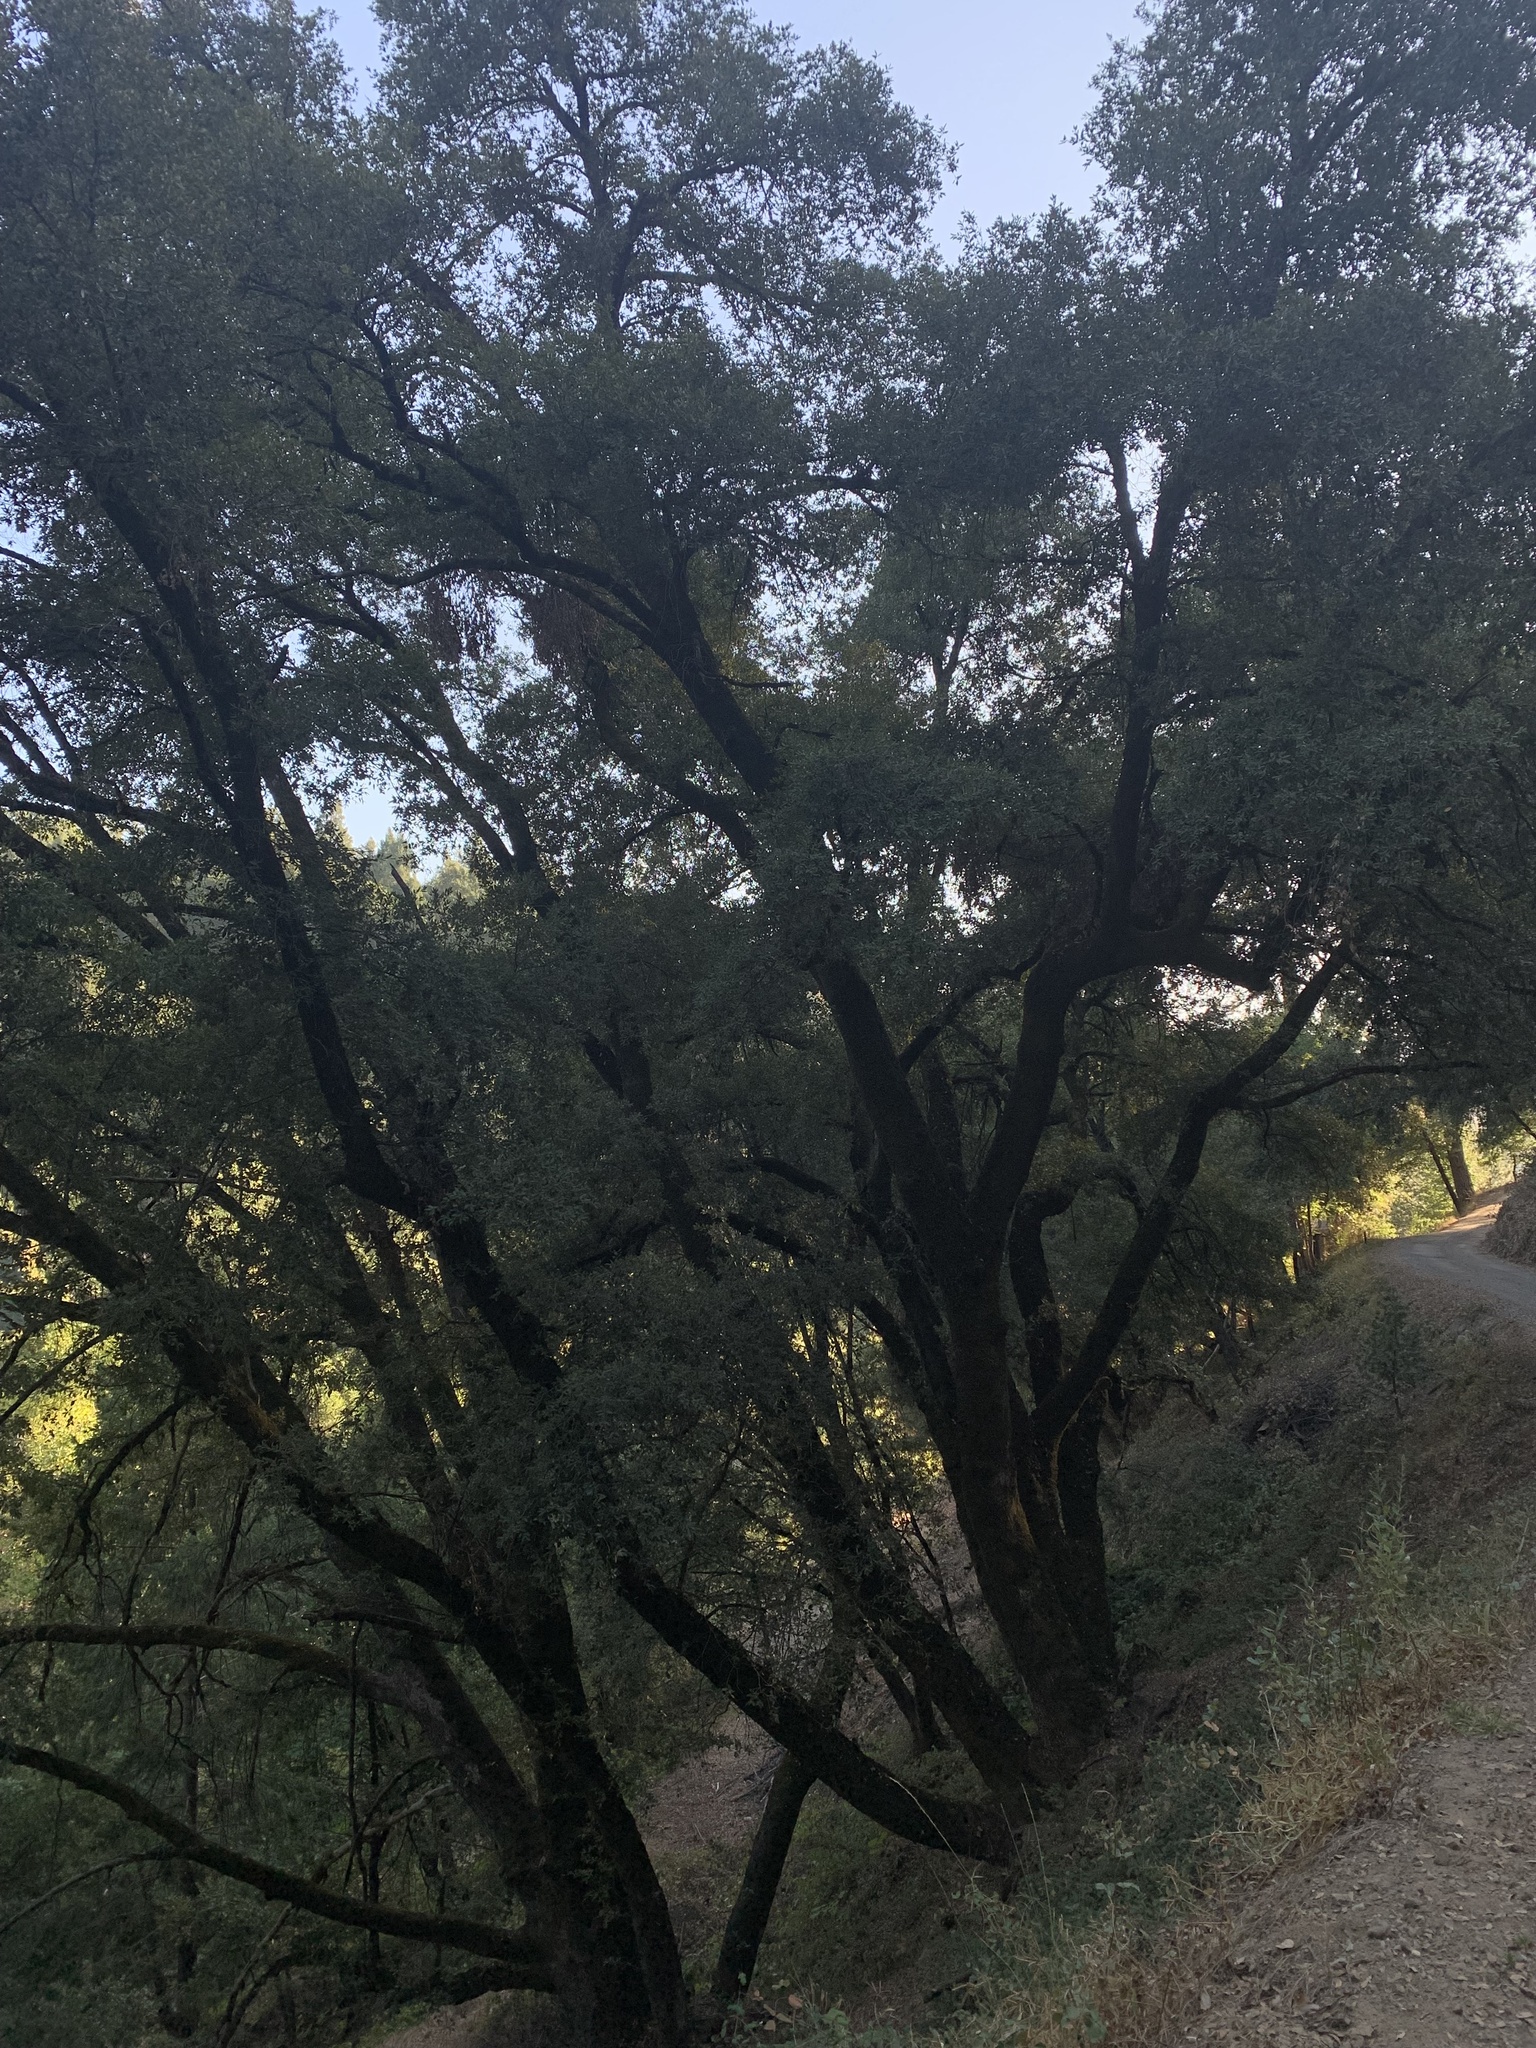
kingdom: Plantae
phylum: Tracheophyta
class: Magnoliopsida
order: Fagales
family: Fagaceae
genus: Quercus
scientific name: Quercus chrysolepis
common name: Canyon live oak
